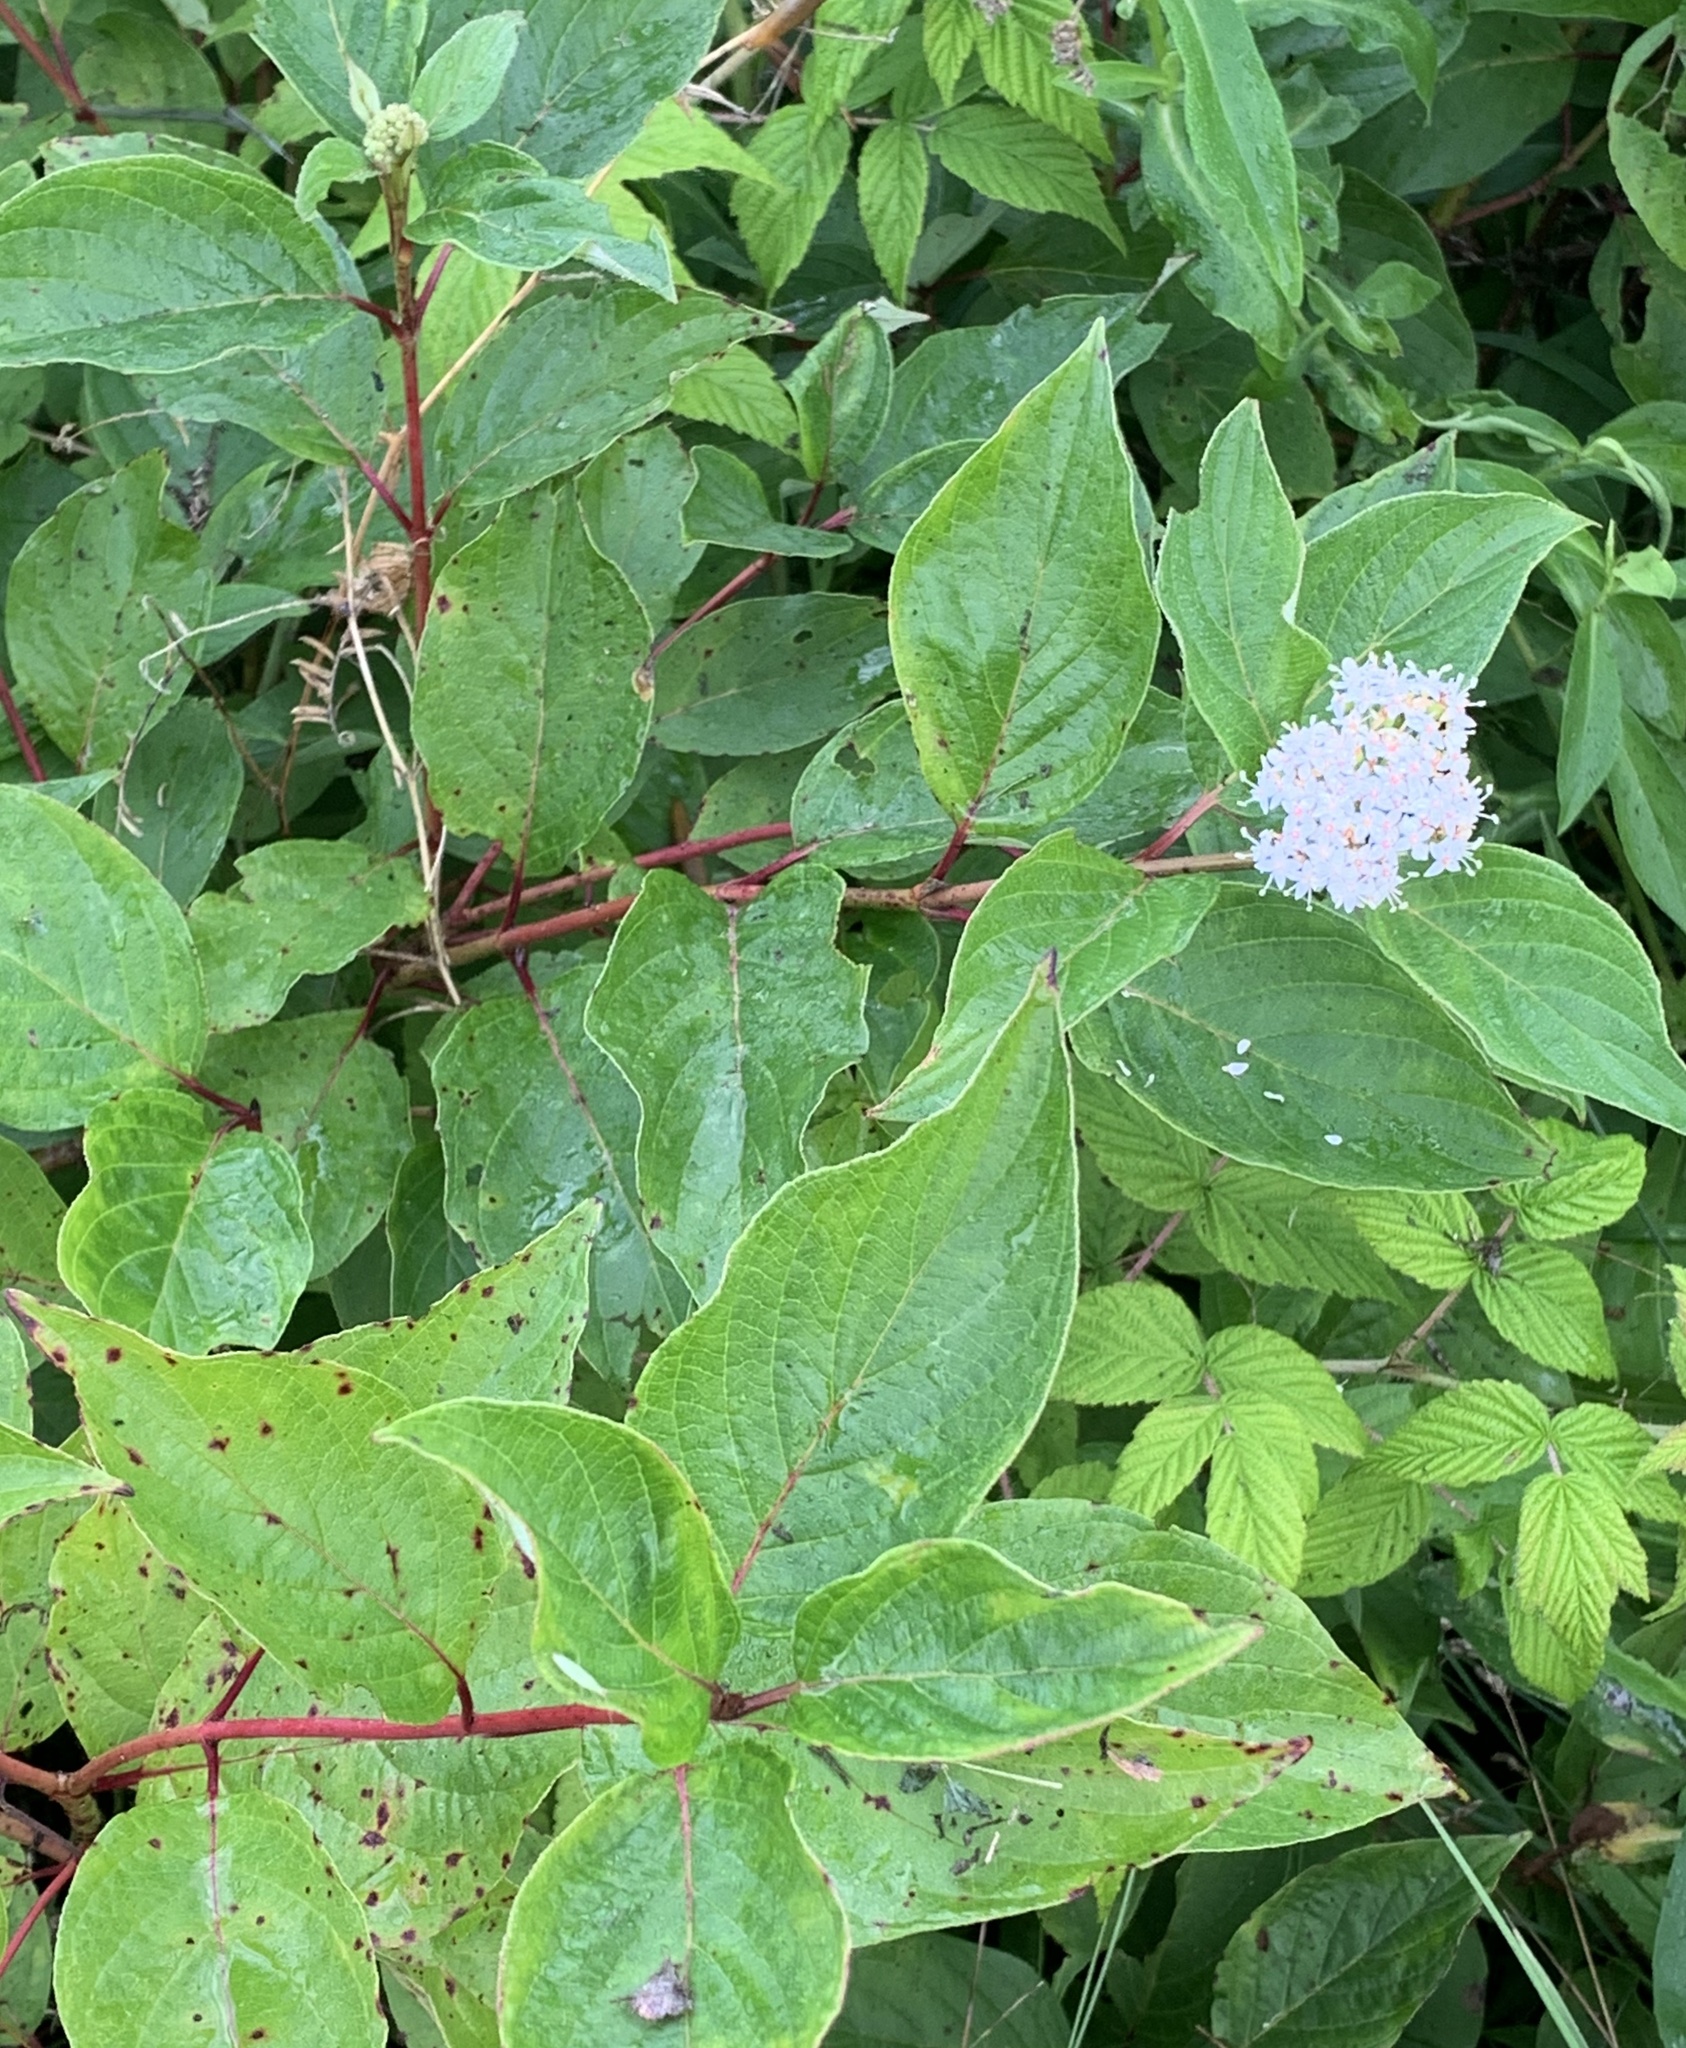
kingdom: Plantae
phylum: Tracheophyta
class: Magnoliopsida
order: Cornales
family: Cornaceae
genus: Cornus
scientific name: Cornus sericea
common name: Red-osier dogwood
